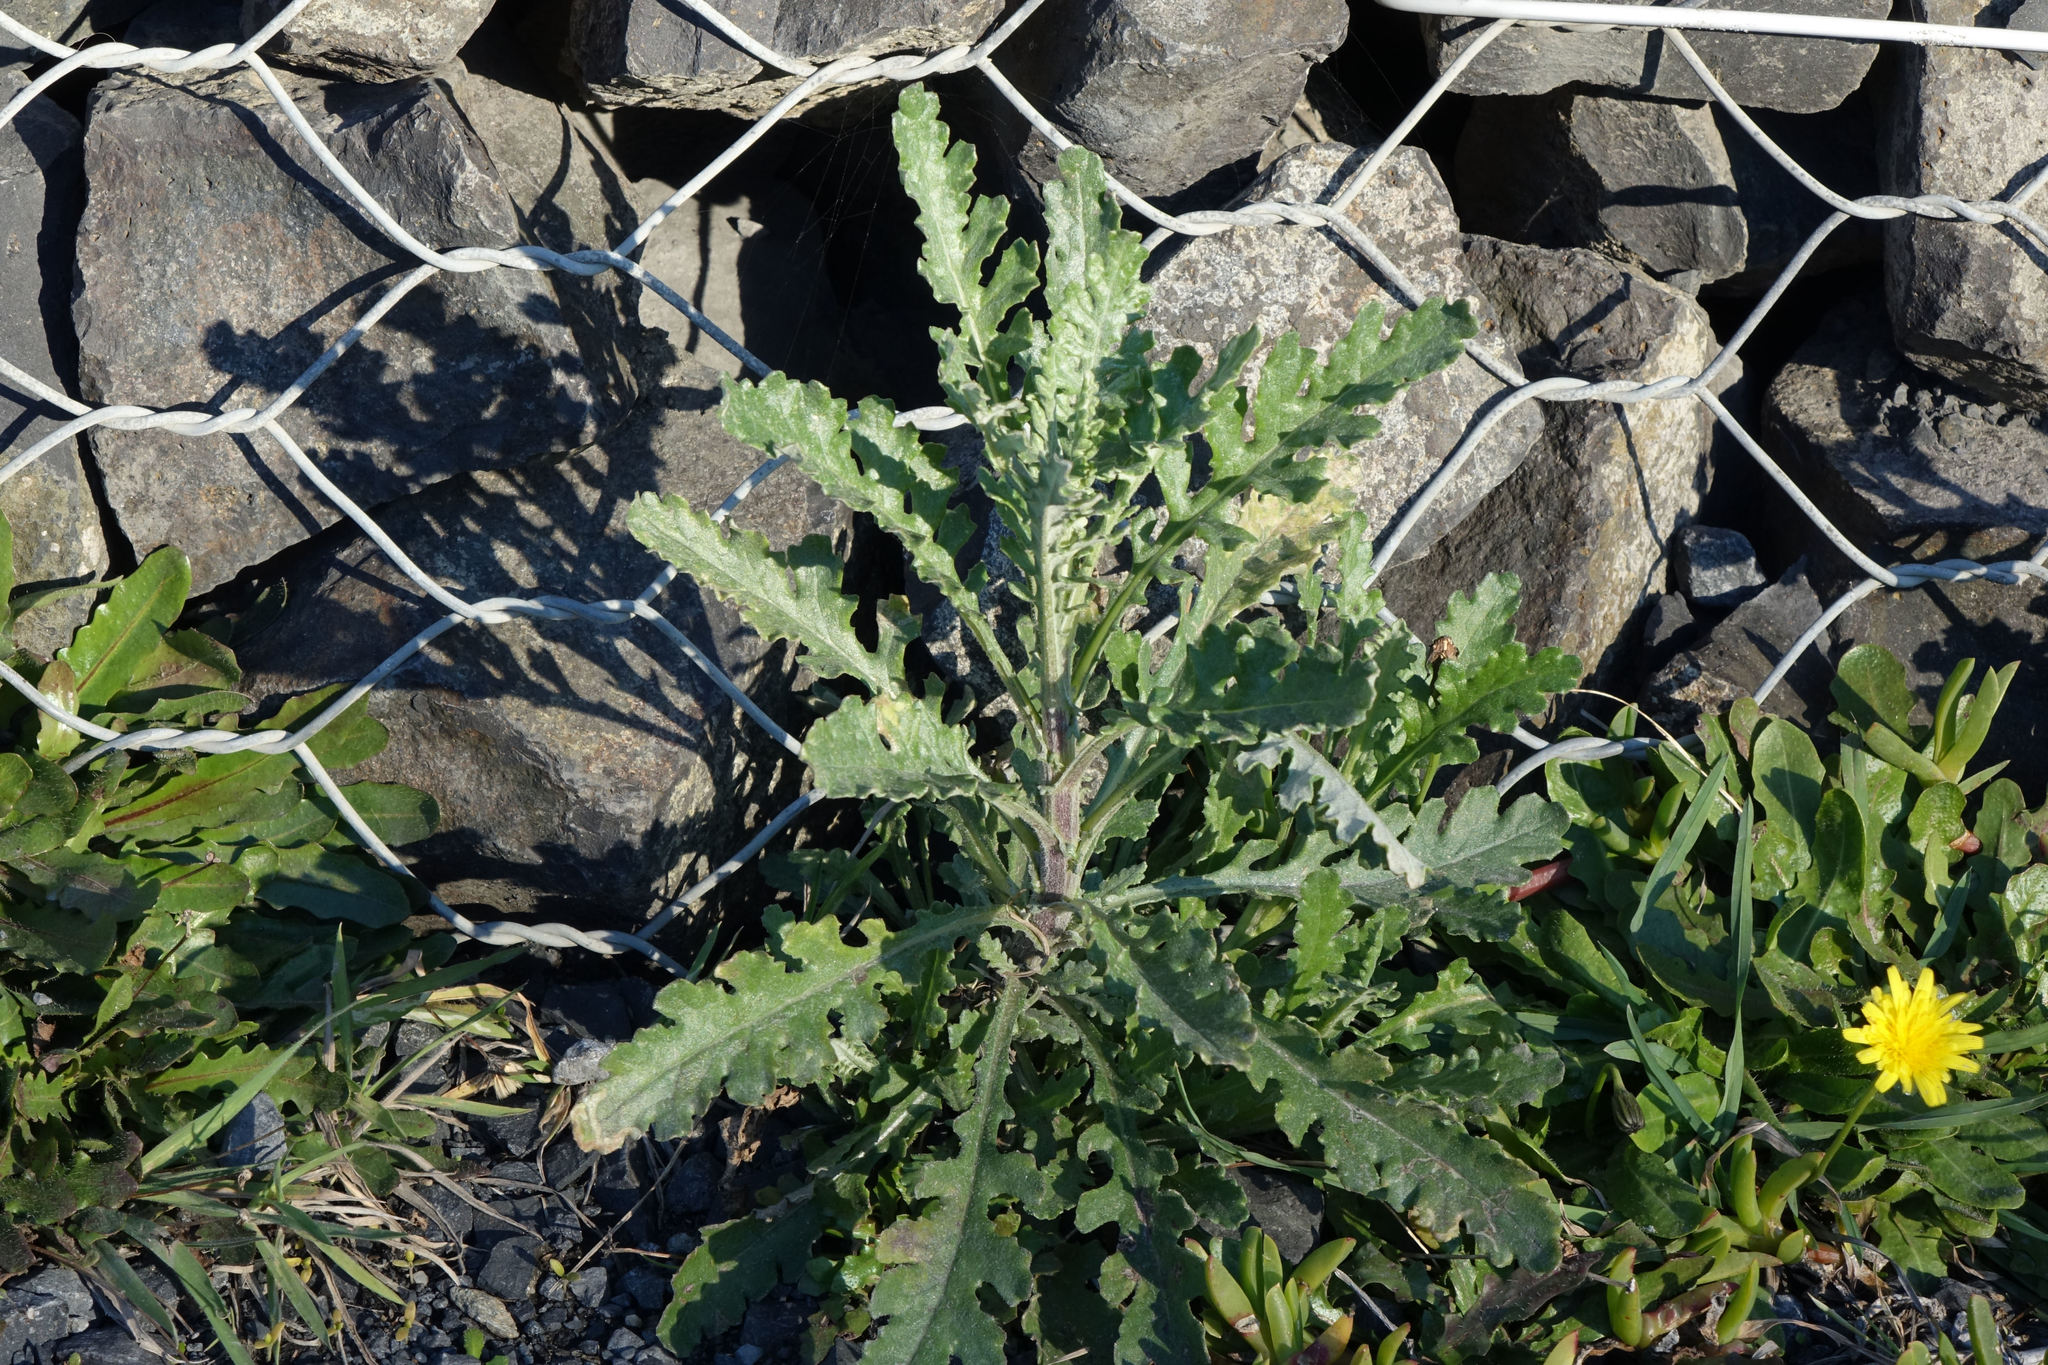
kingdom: Plantae
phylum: Tracheophyta
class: Magnoliopsida
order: Asterales
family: Asteraceae
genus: Senecio
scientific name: Senecio glomeratus
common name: Cutleaf burnweed
